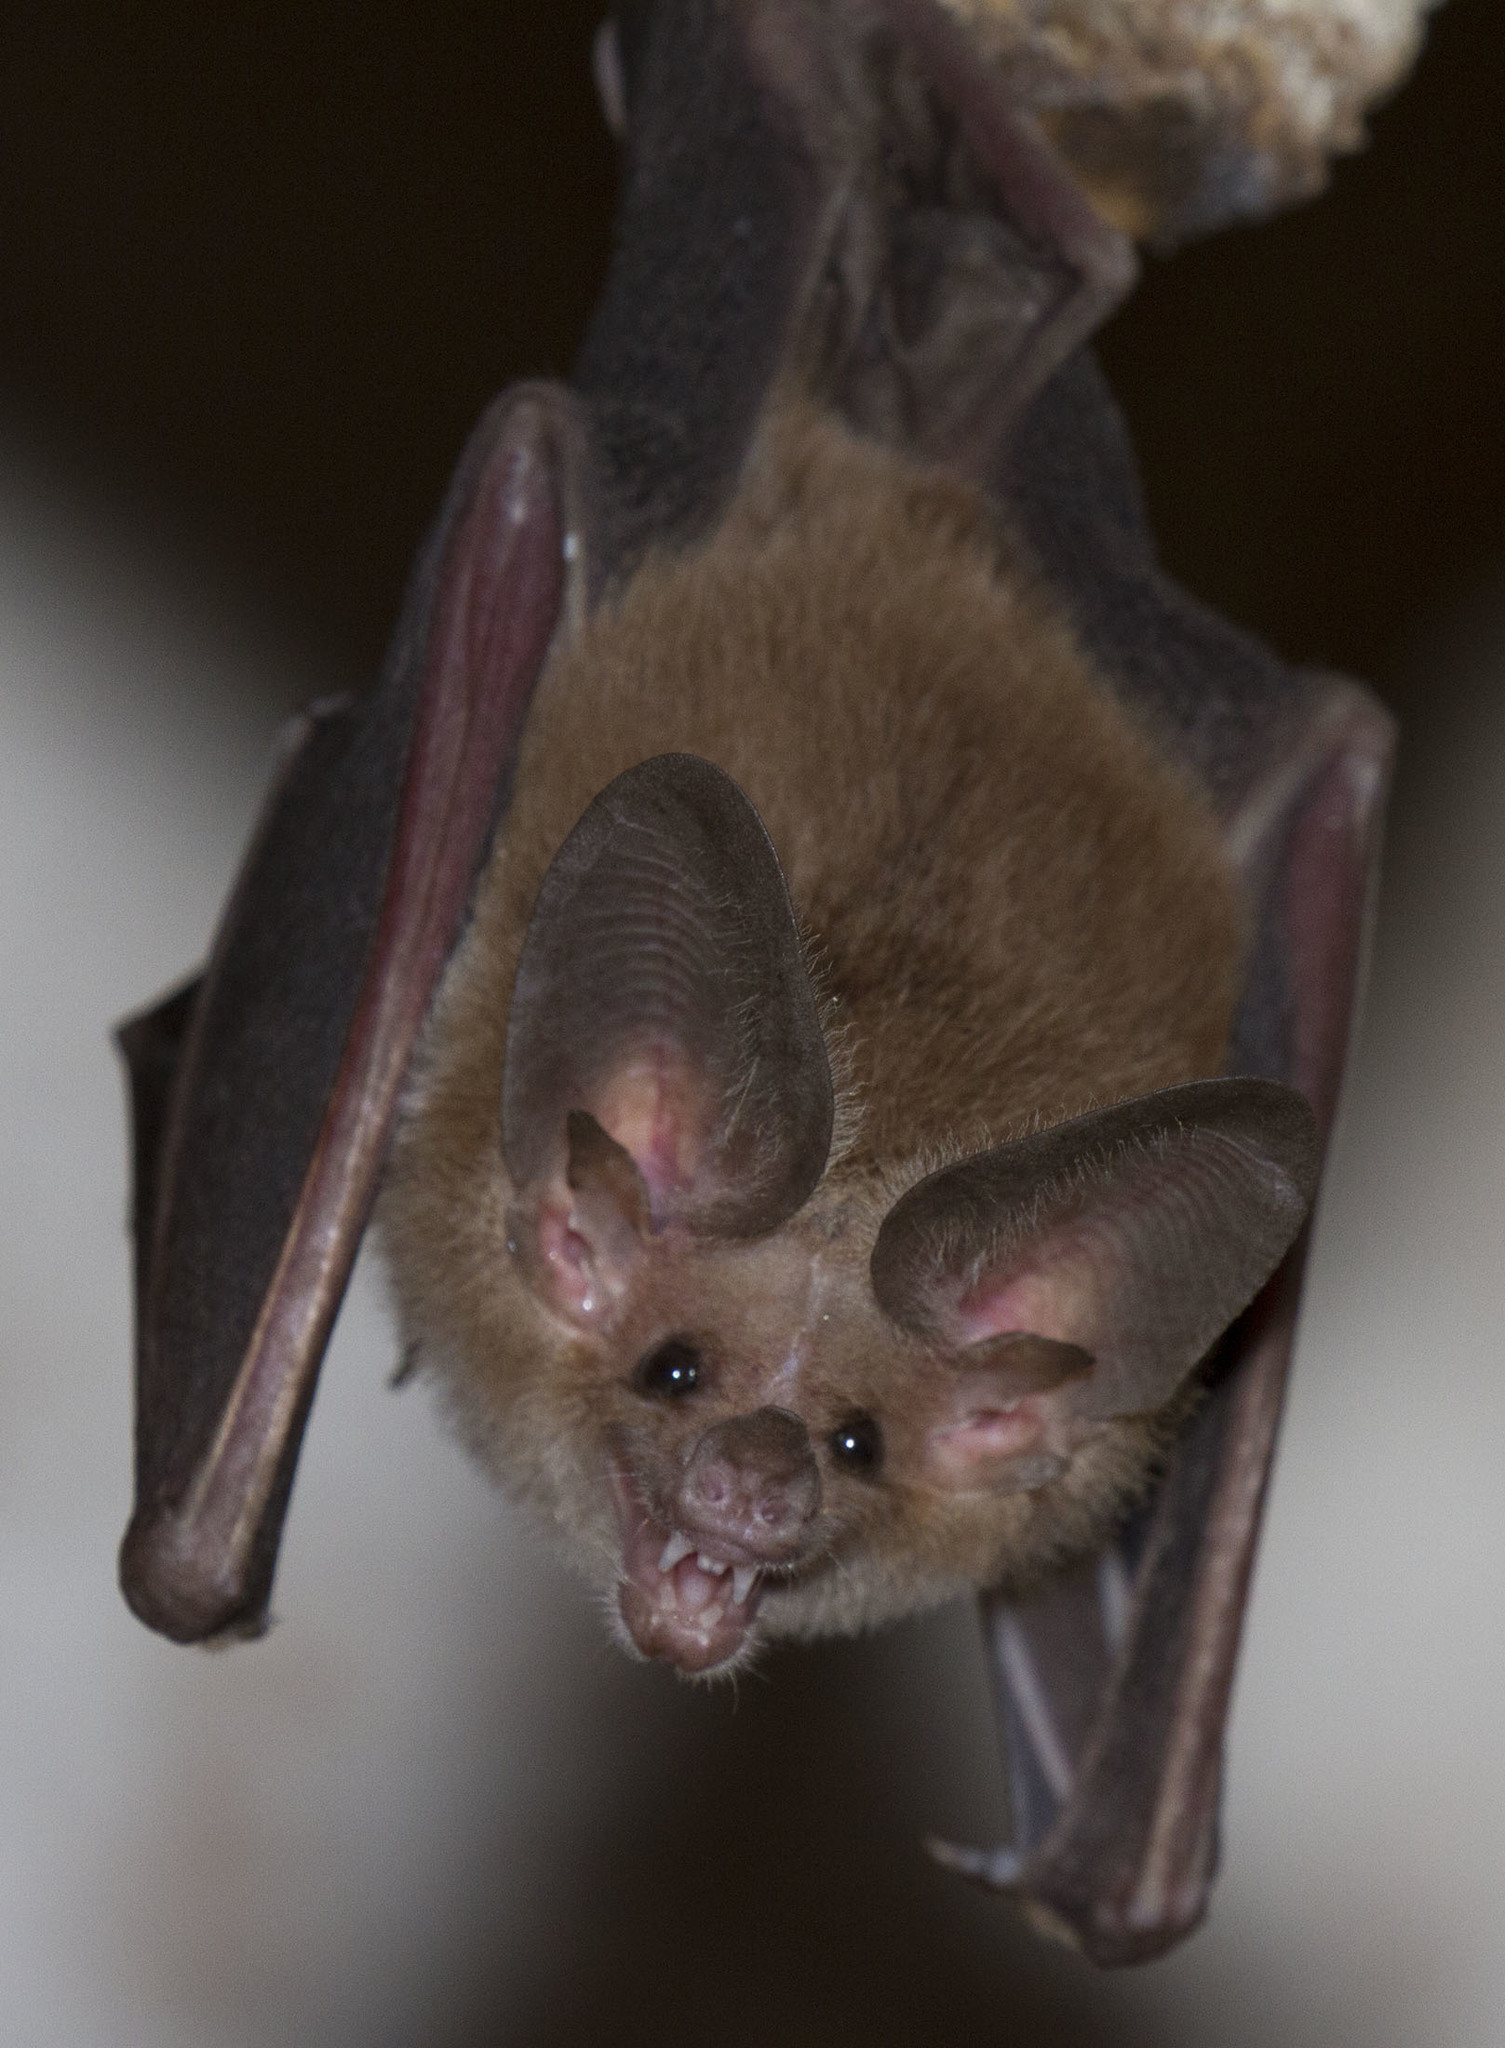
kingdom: Animalia
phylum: Chordata
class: Mammalia
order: Chiroptera
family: Phyllostomidae
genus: Macrotus
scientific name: Macrotus waterhousii
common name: Waterhouse's leaf-nosed bat
